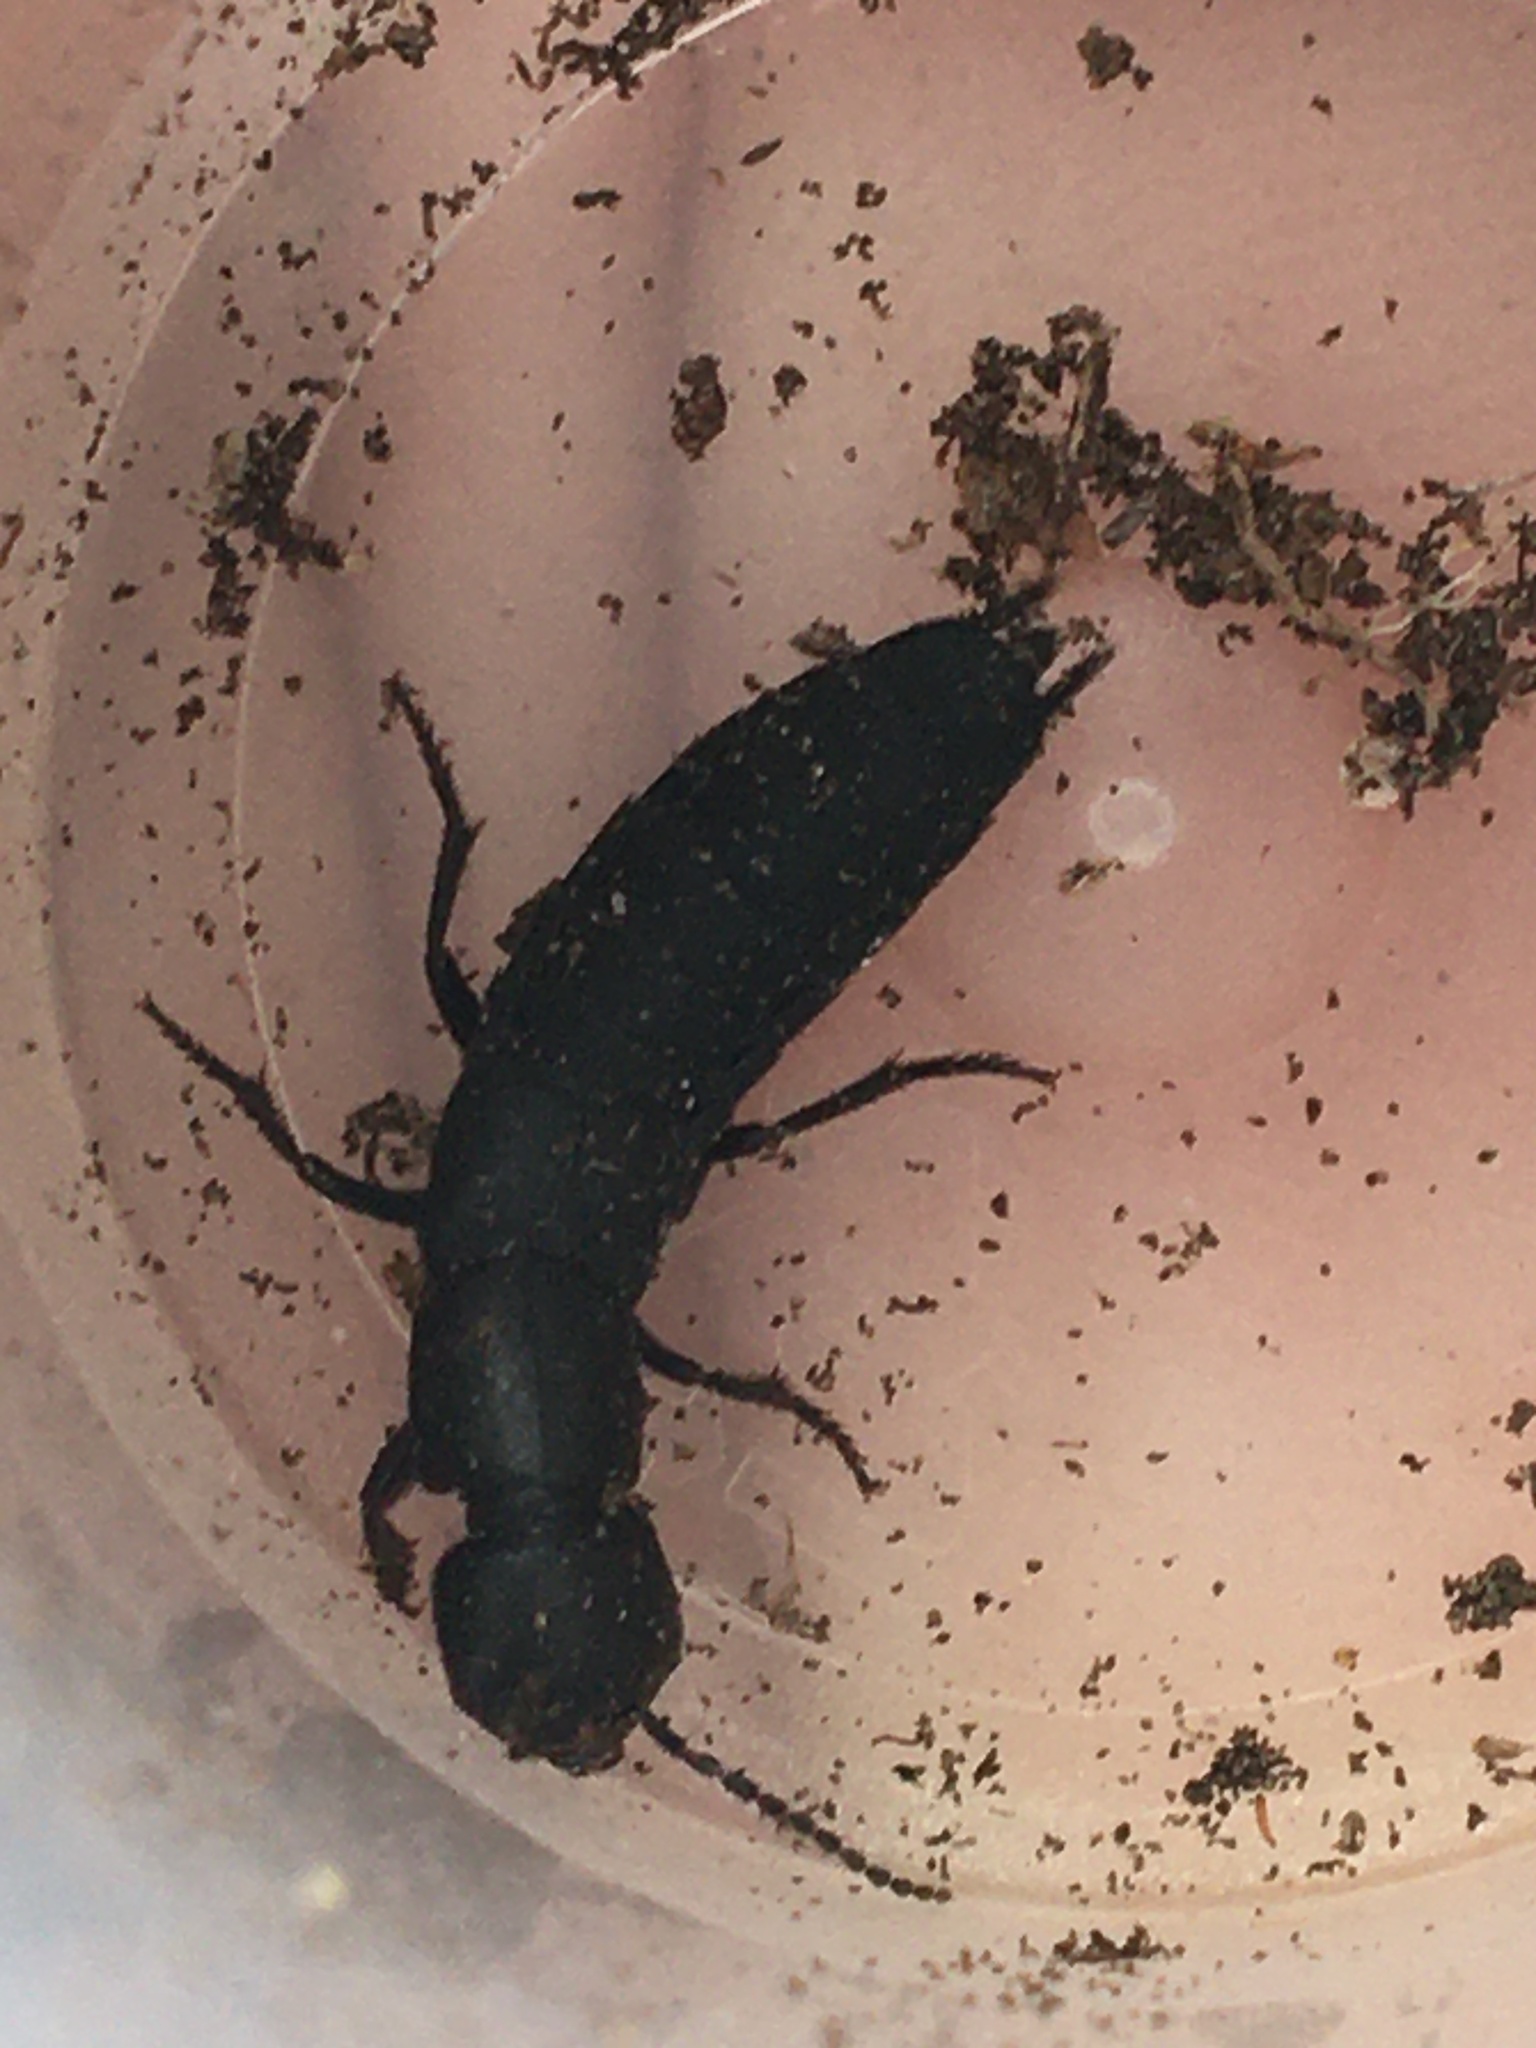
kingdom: Animalia
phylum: Arthropoda
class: Insecta
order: Coleoptera
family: Staphylinidae
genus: Ocypus
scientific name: Ocypus nitens
